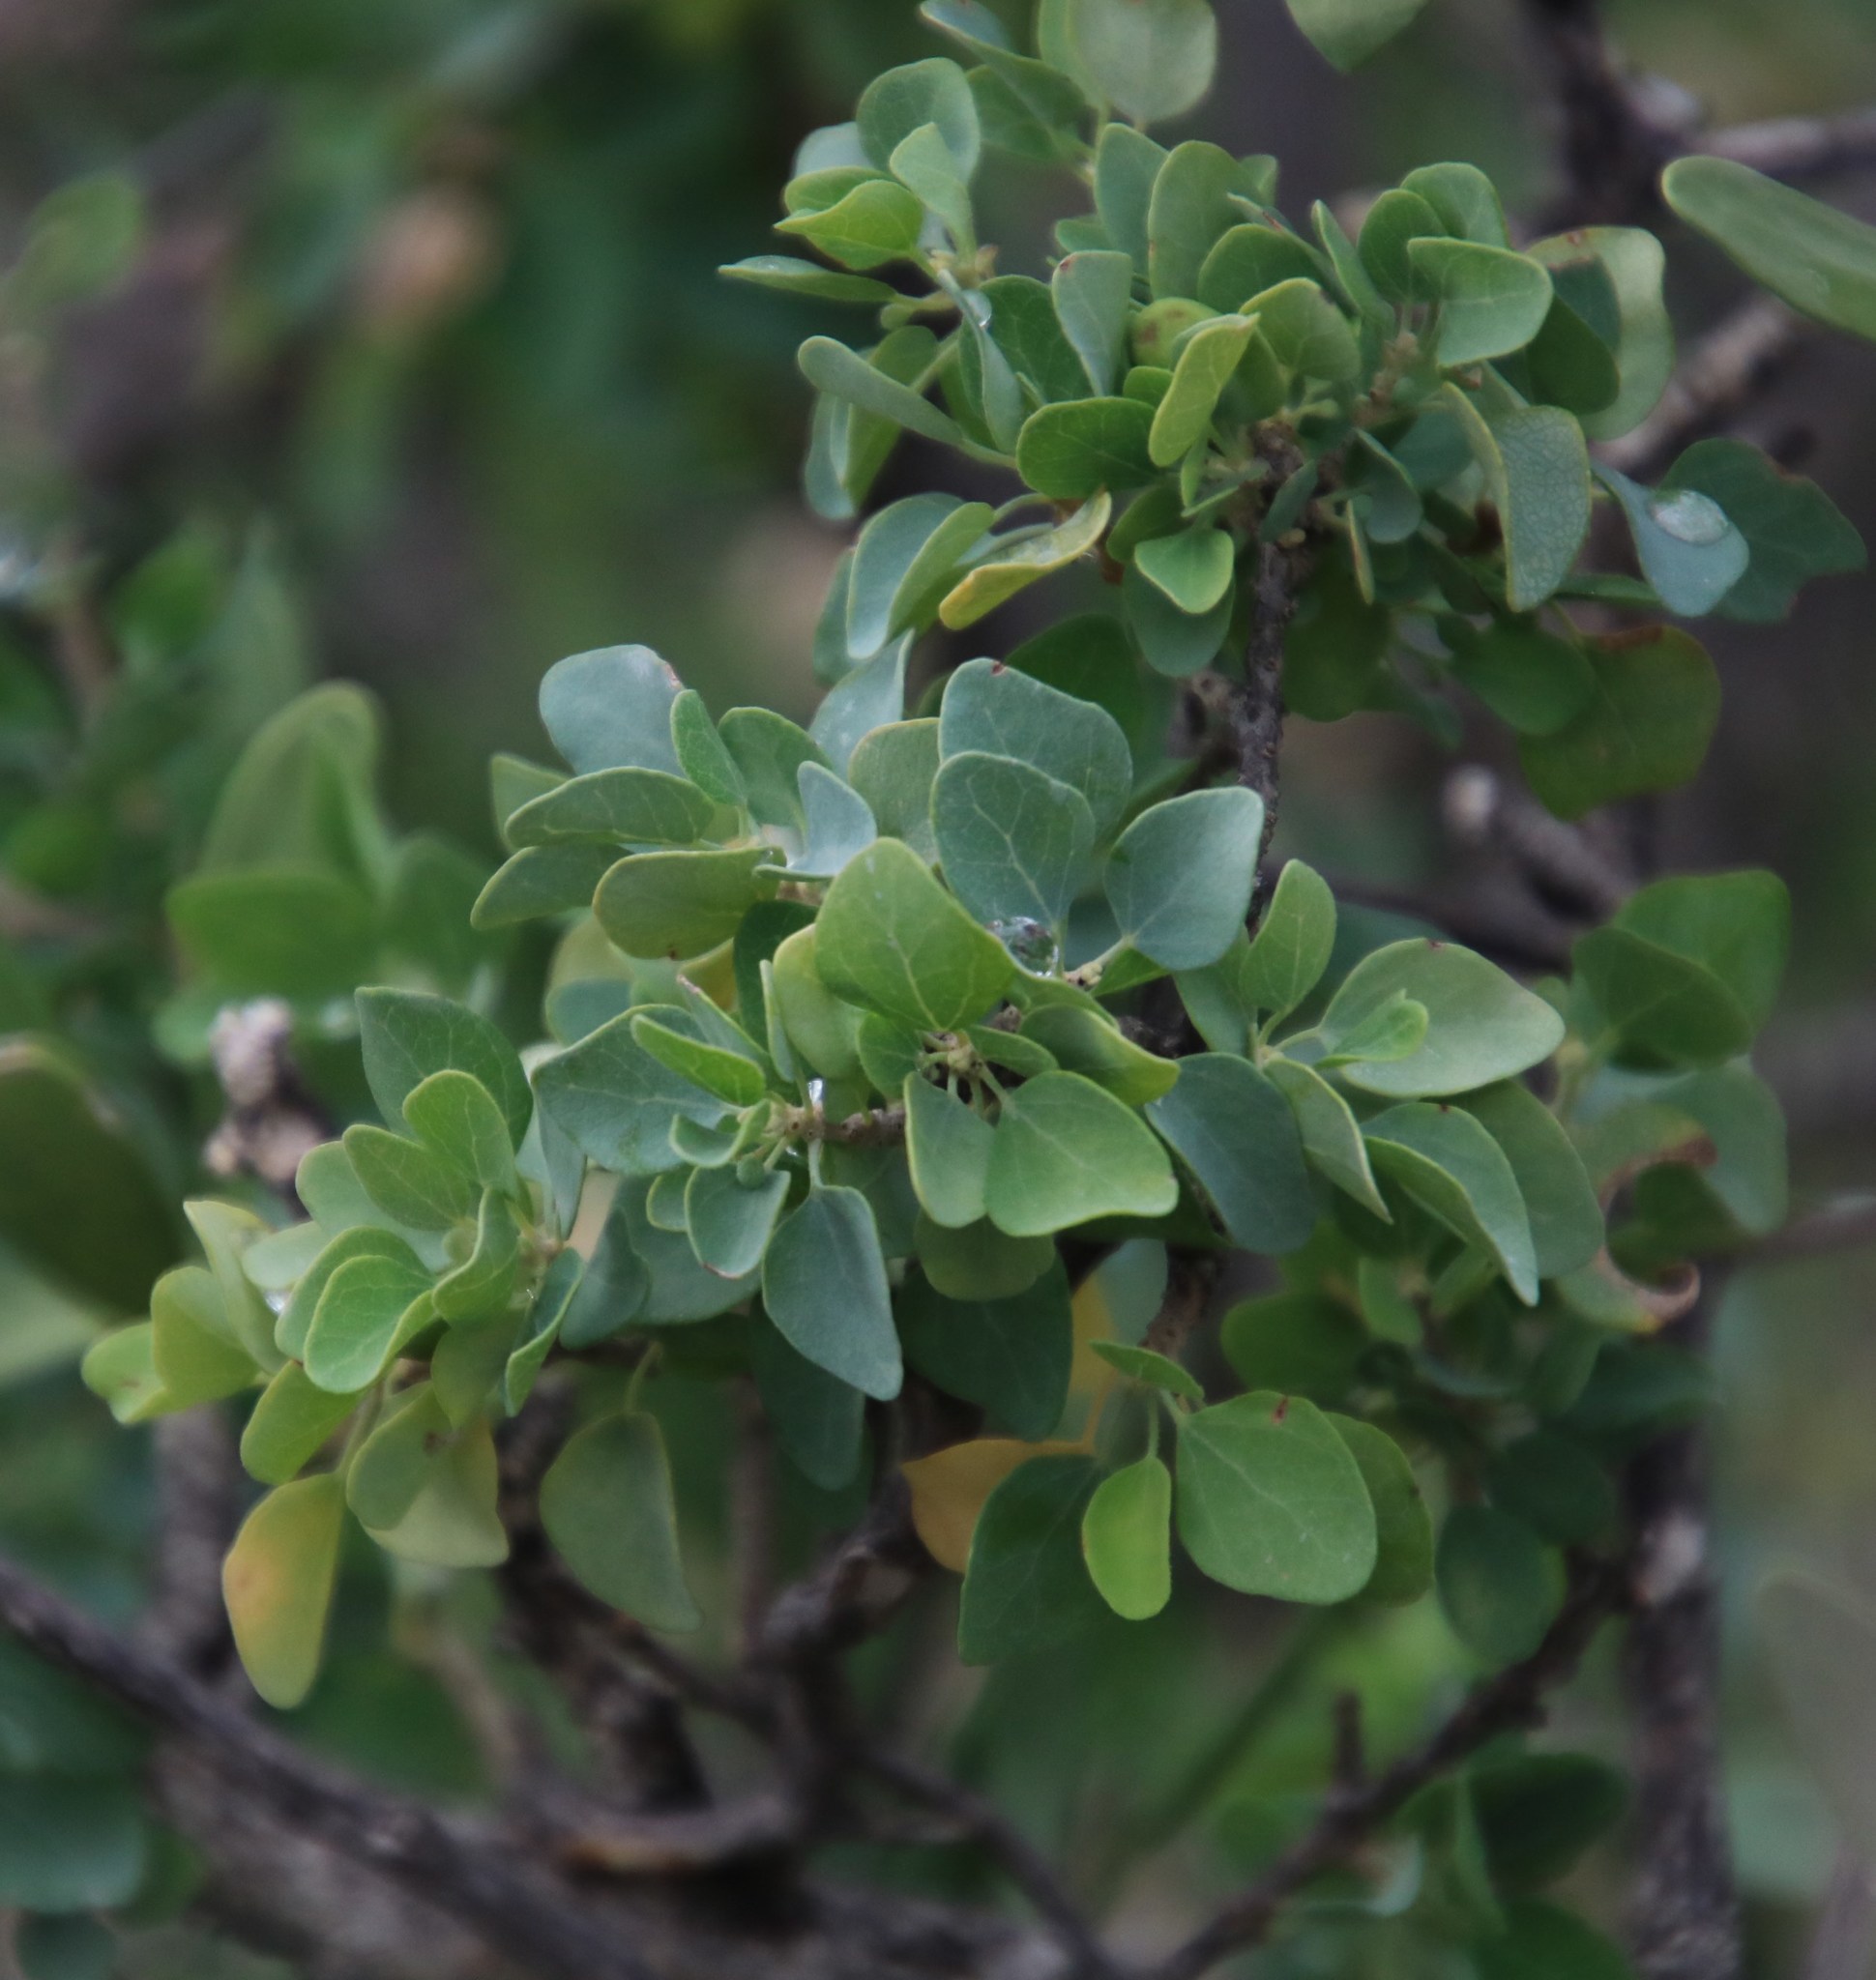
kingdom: Plantae
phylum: Tracheophyta
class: Magnoliopsida
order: Ranunculales
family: Menispermaceae
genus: Cissampelos
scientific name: Cissampelos capensis
